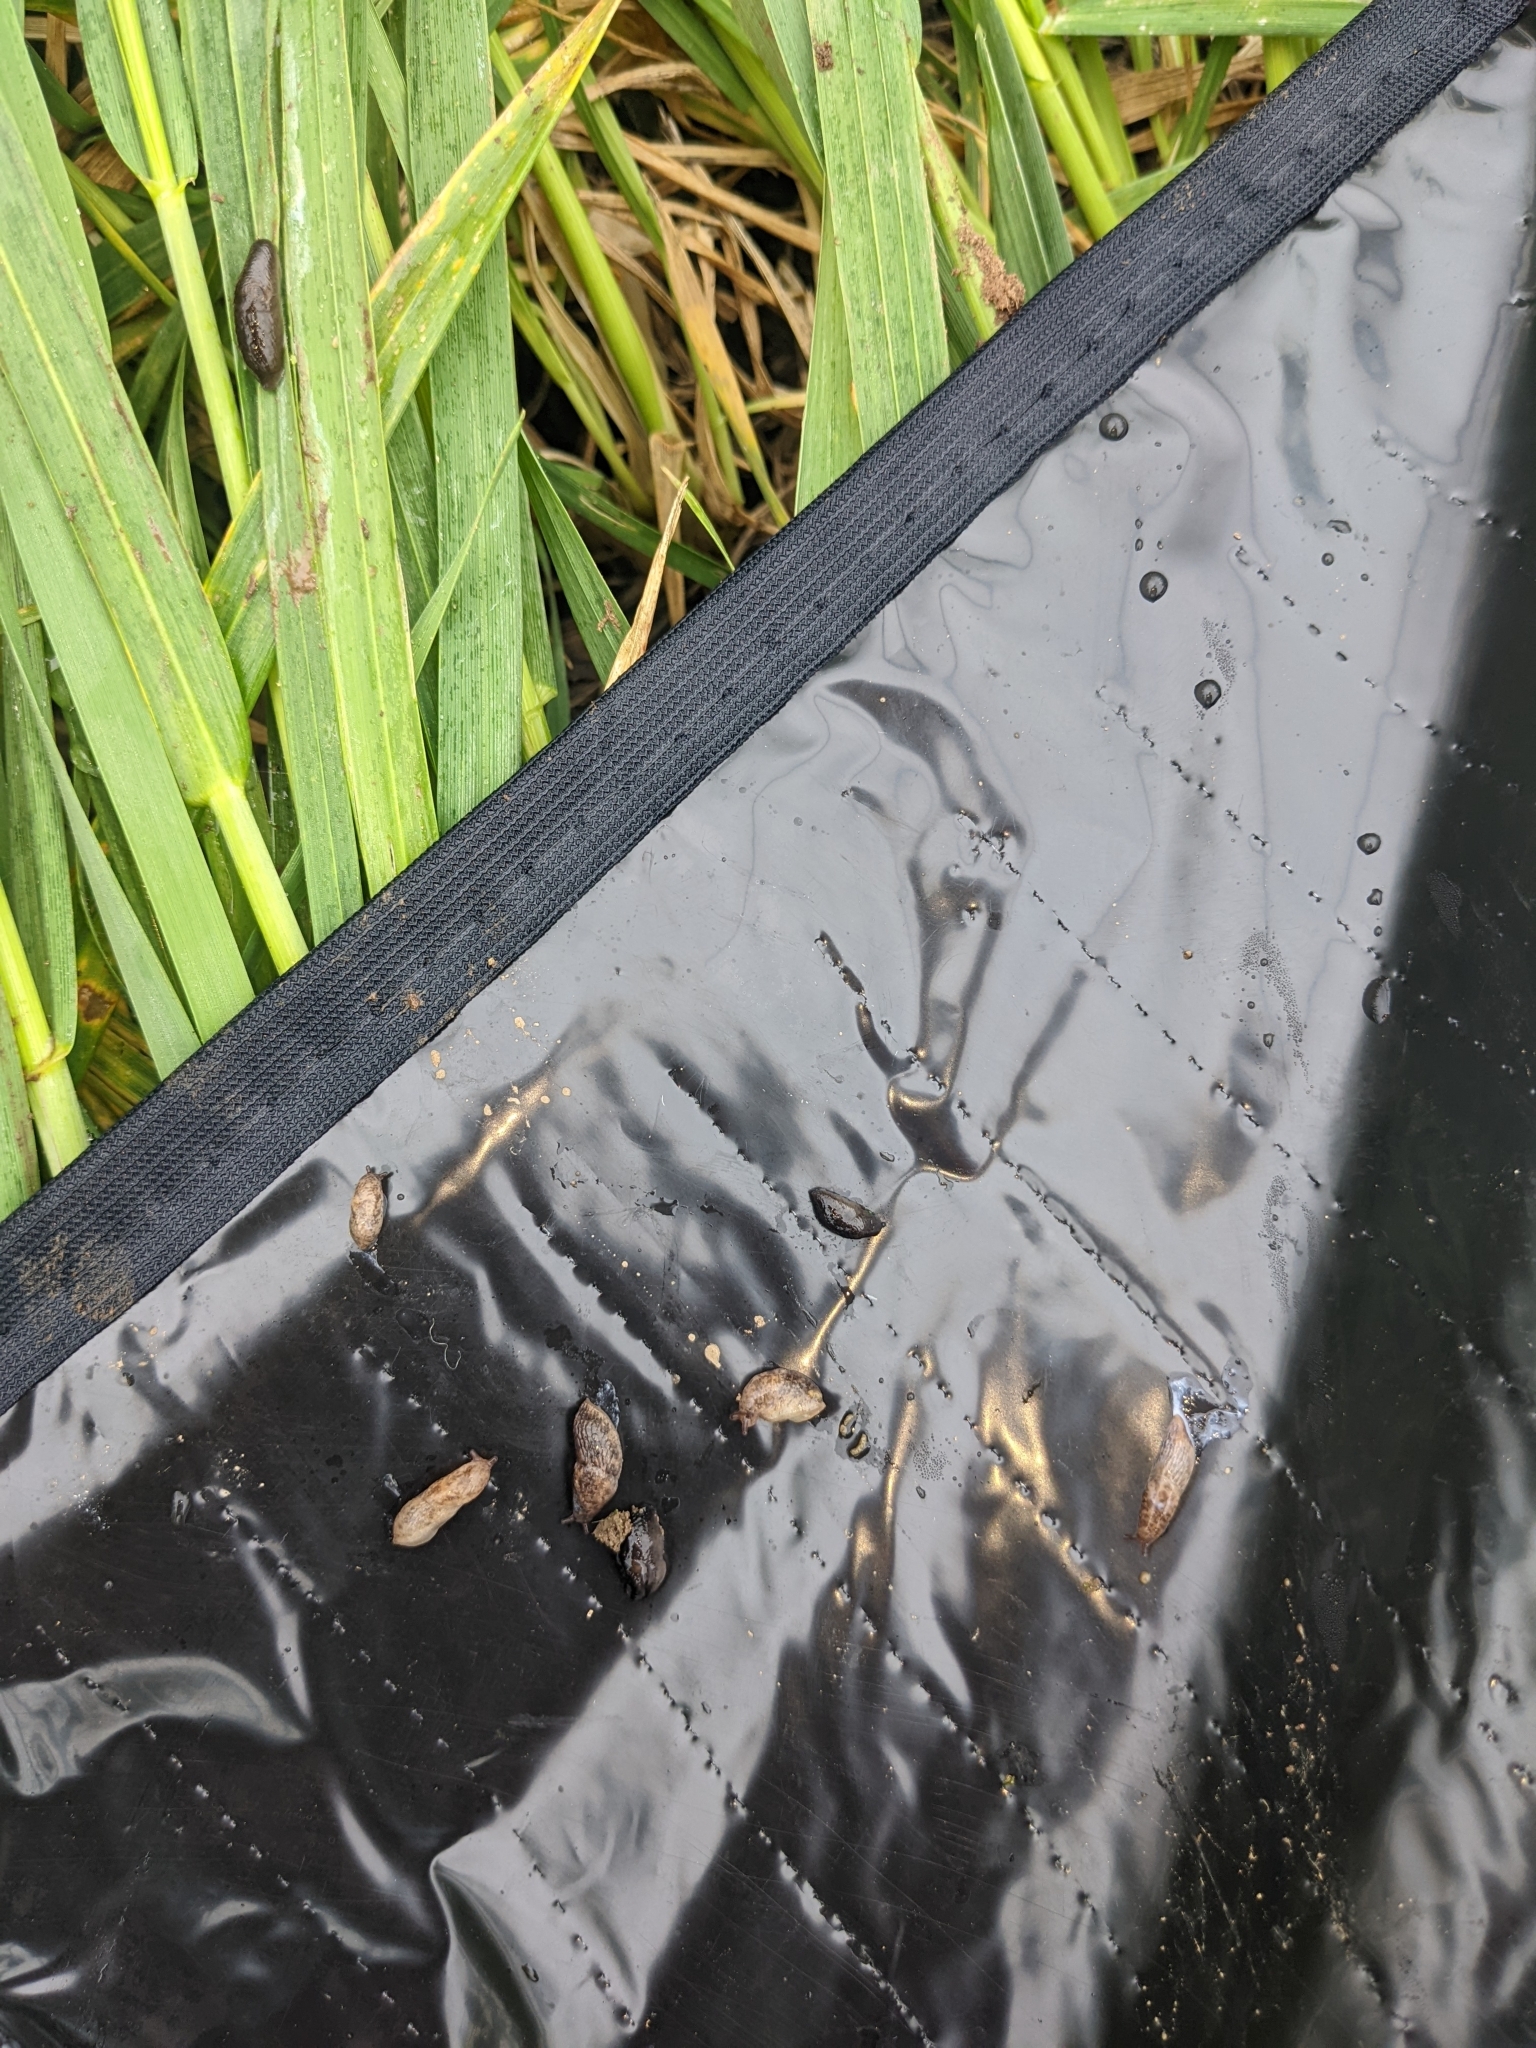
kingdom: Animalia
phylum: Mollusca
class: Gastropoda
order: Stylommatophora
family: Agriolimacidae
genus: Deroceras
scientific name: Deroceras reticulatum
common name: Gray field slug
